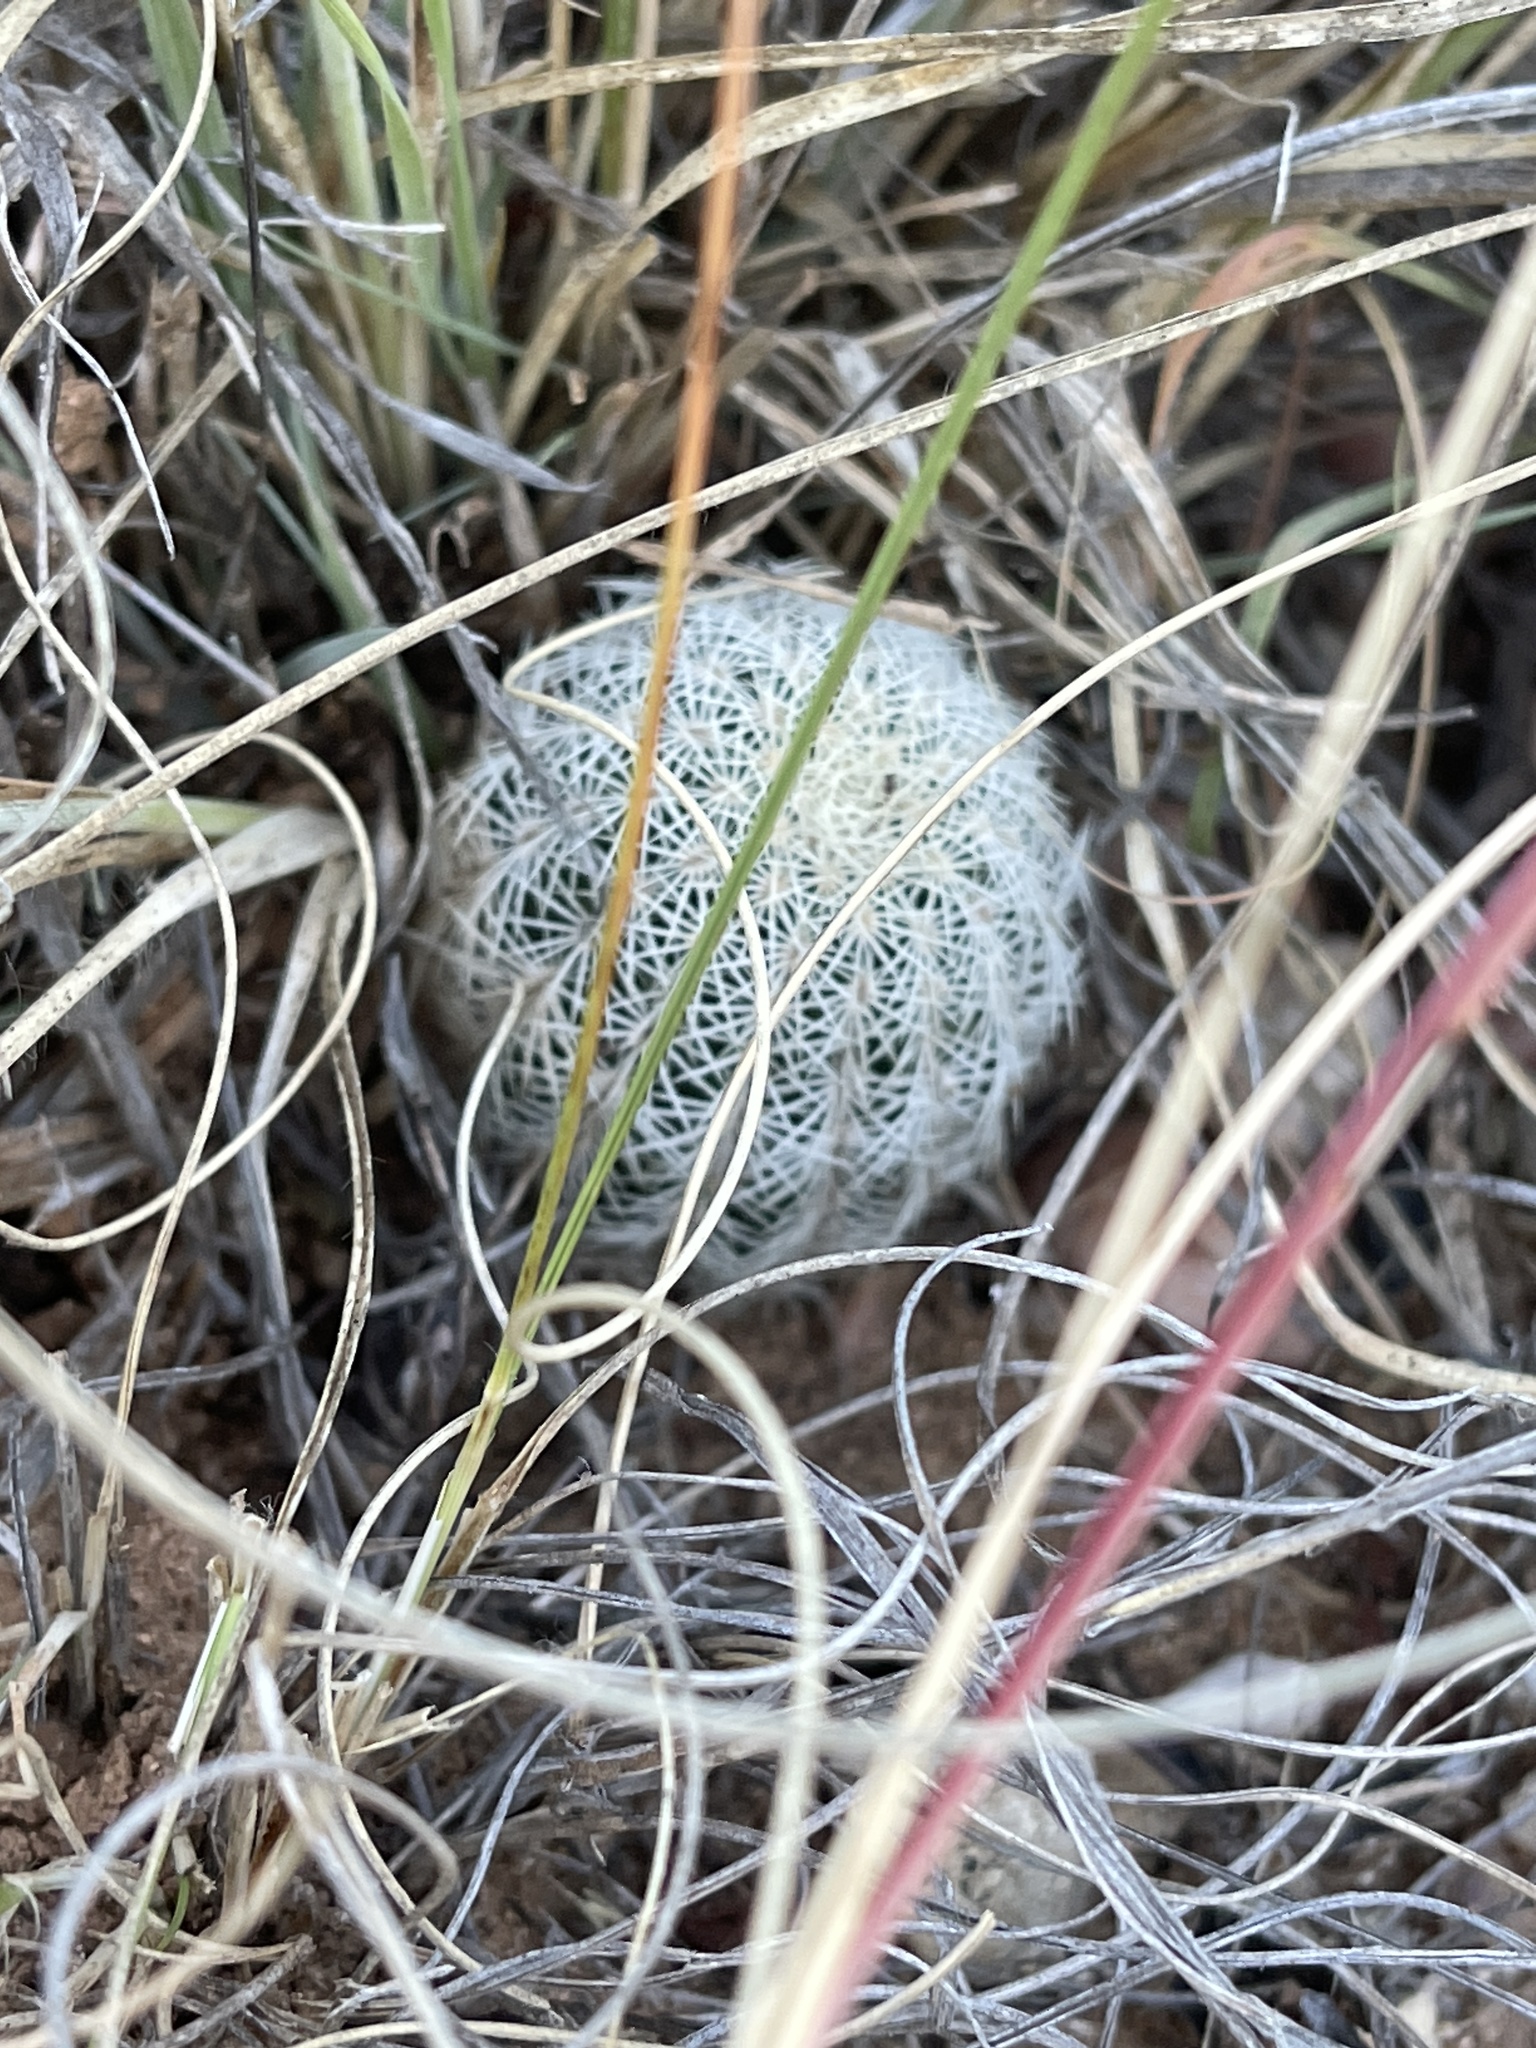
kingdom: Plantae
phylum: Tracheophyta
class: Magnoliopsida
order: Caryophyllales
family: Cactaceae
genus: Echinocereus
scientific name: Echinocereus reichenbachii
